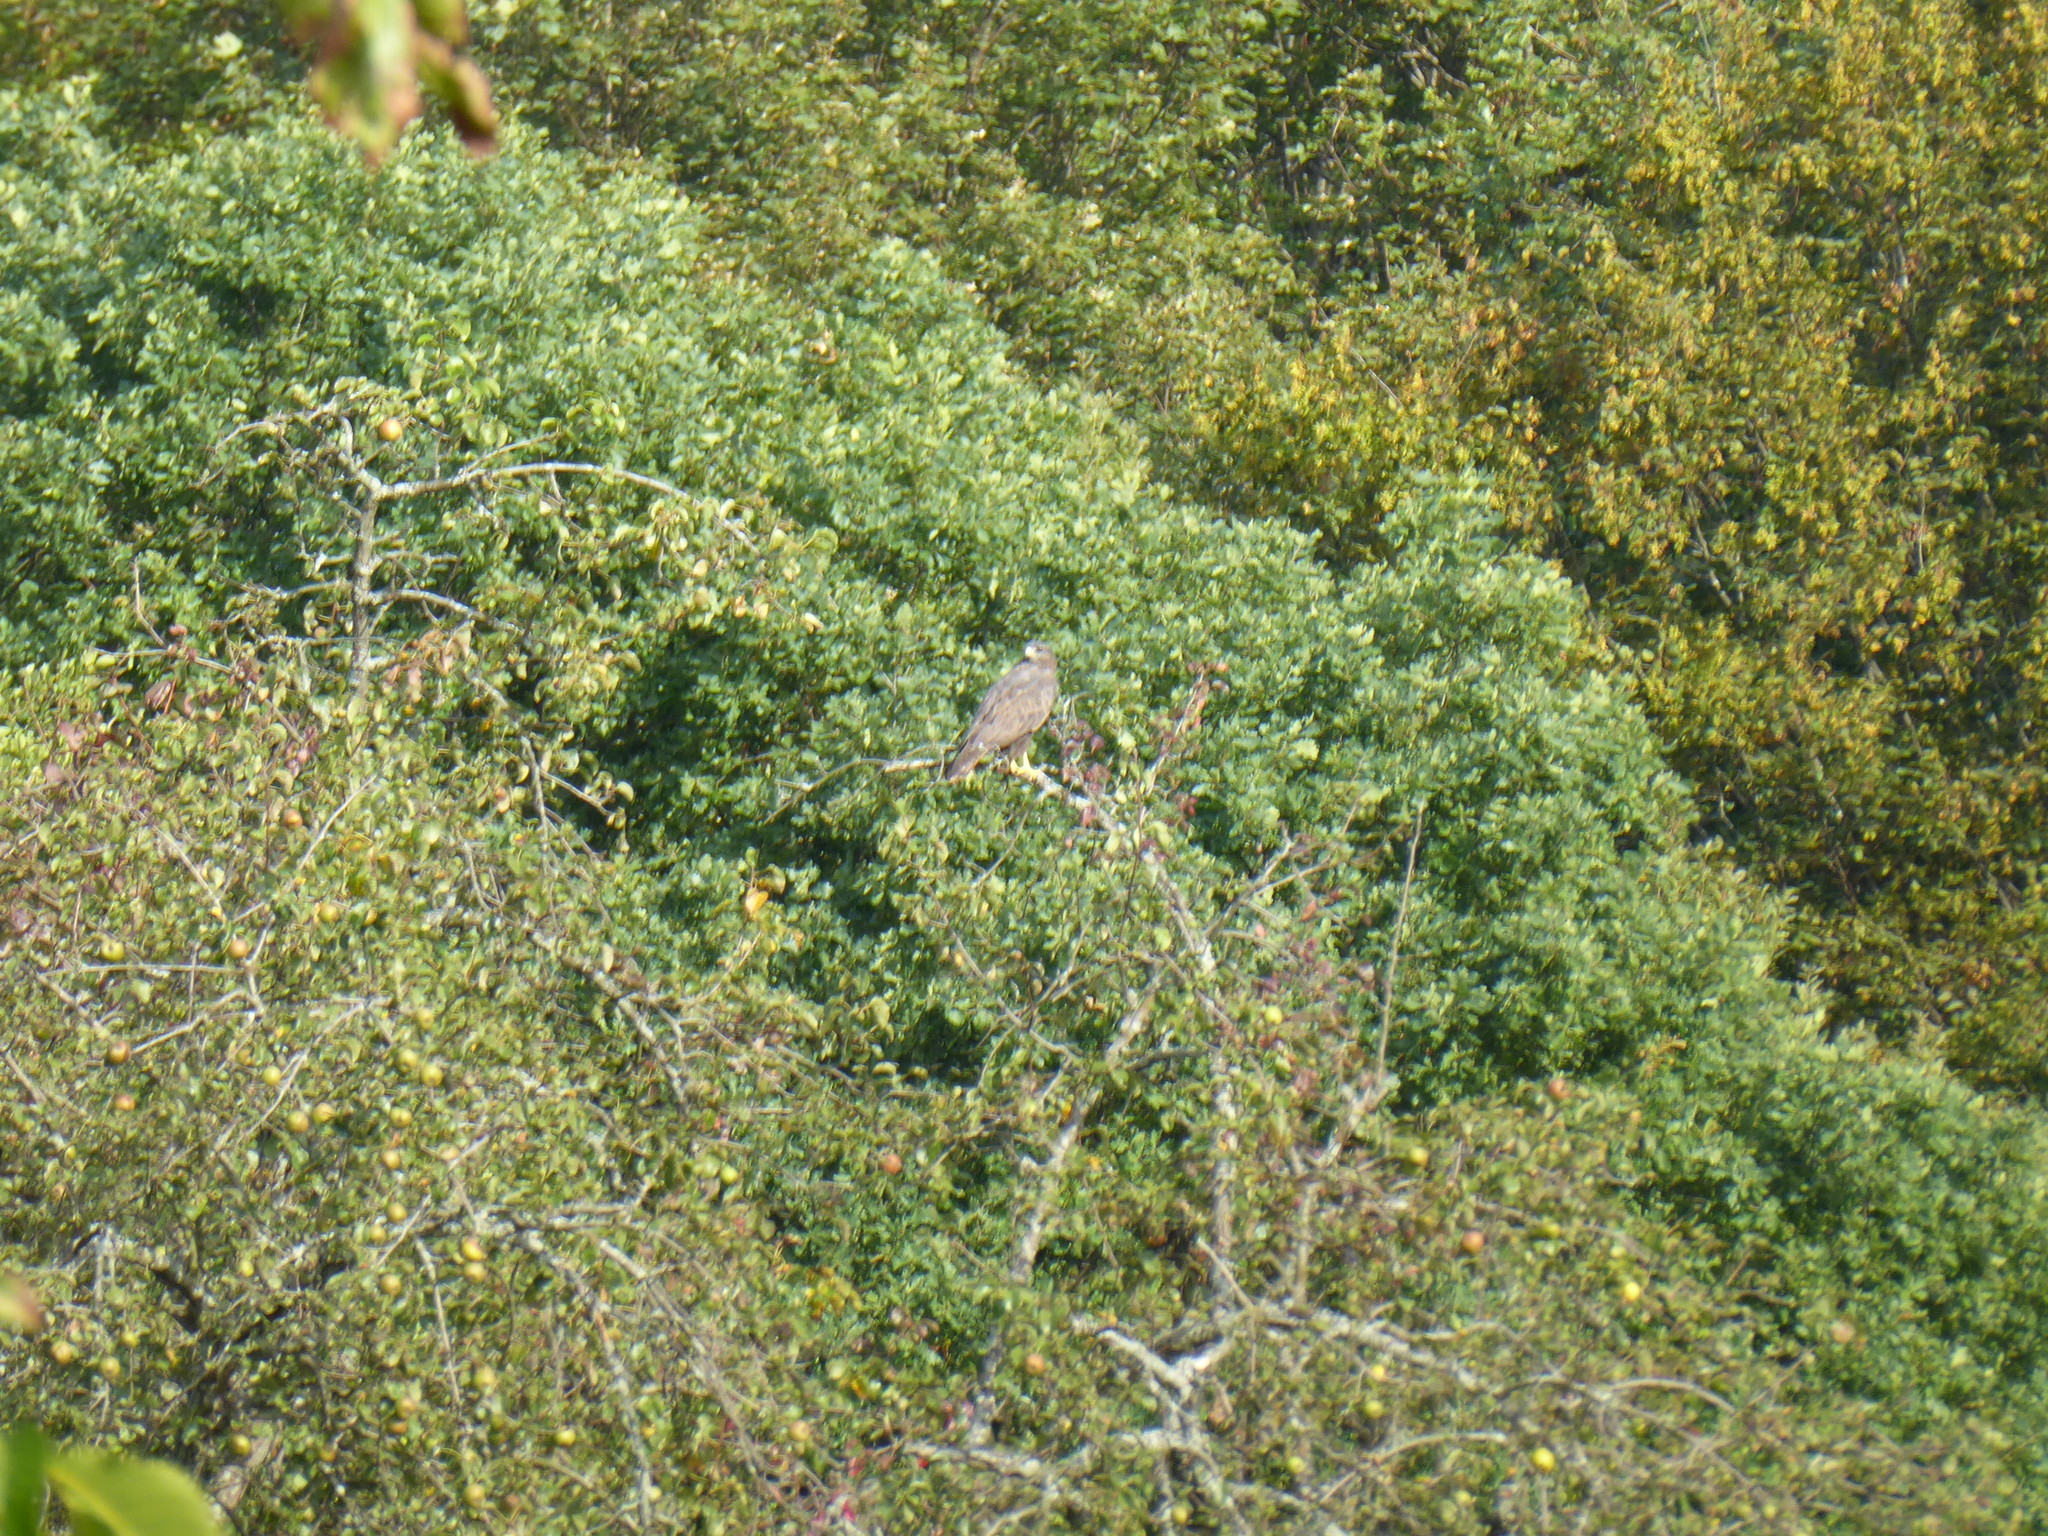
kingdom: Animalia
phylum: Chordata
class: Aves
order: Accipitriformes
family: Accipitridae
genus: Buteo
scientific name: Buteo buteo
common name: Common buzzard
